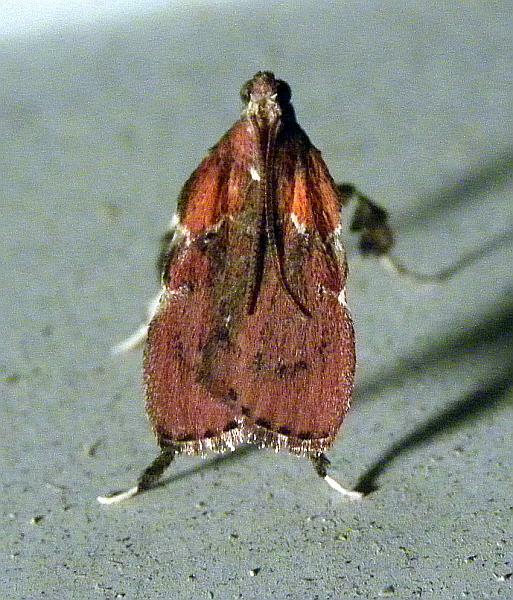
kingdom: Animalia
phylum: Arthropoda
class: Insecta
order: Lepidoptera
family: Pyralidae
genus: Galasa
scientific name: Galasa nigrinodis
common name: Boxwood leaftier moth
